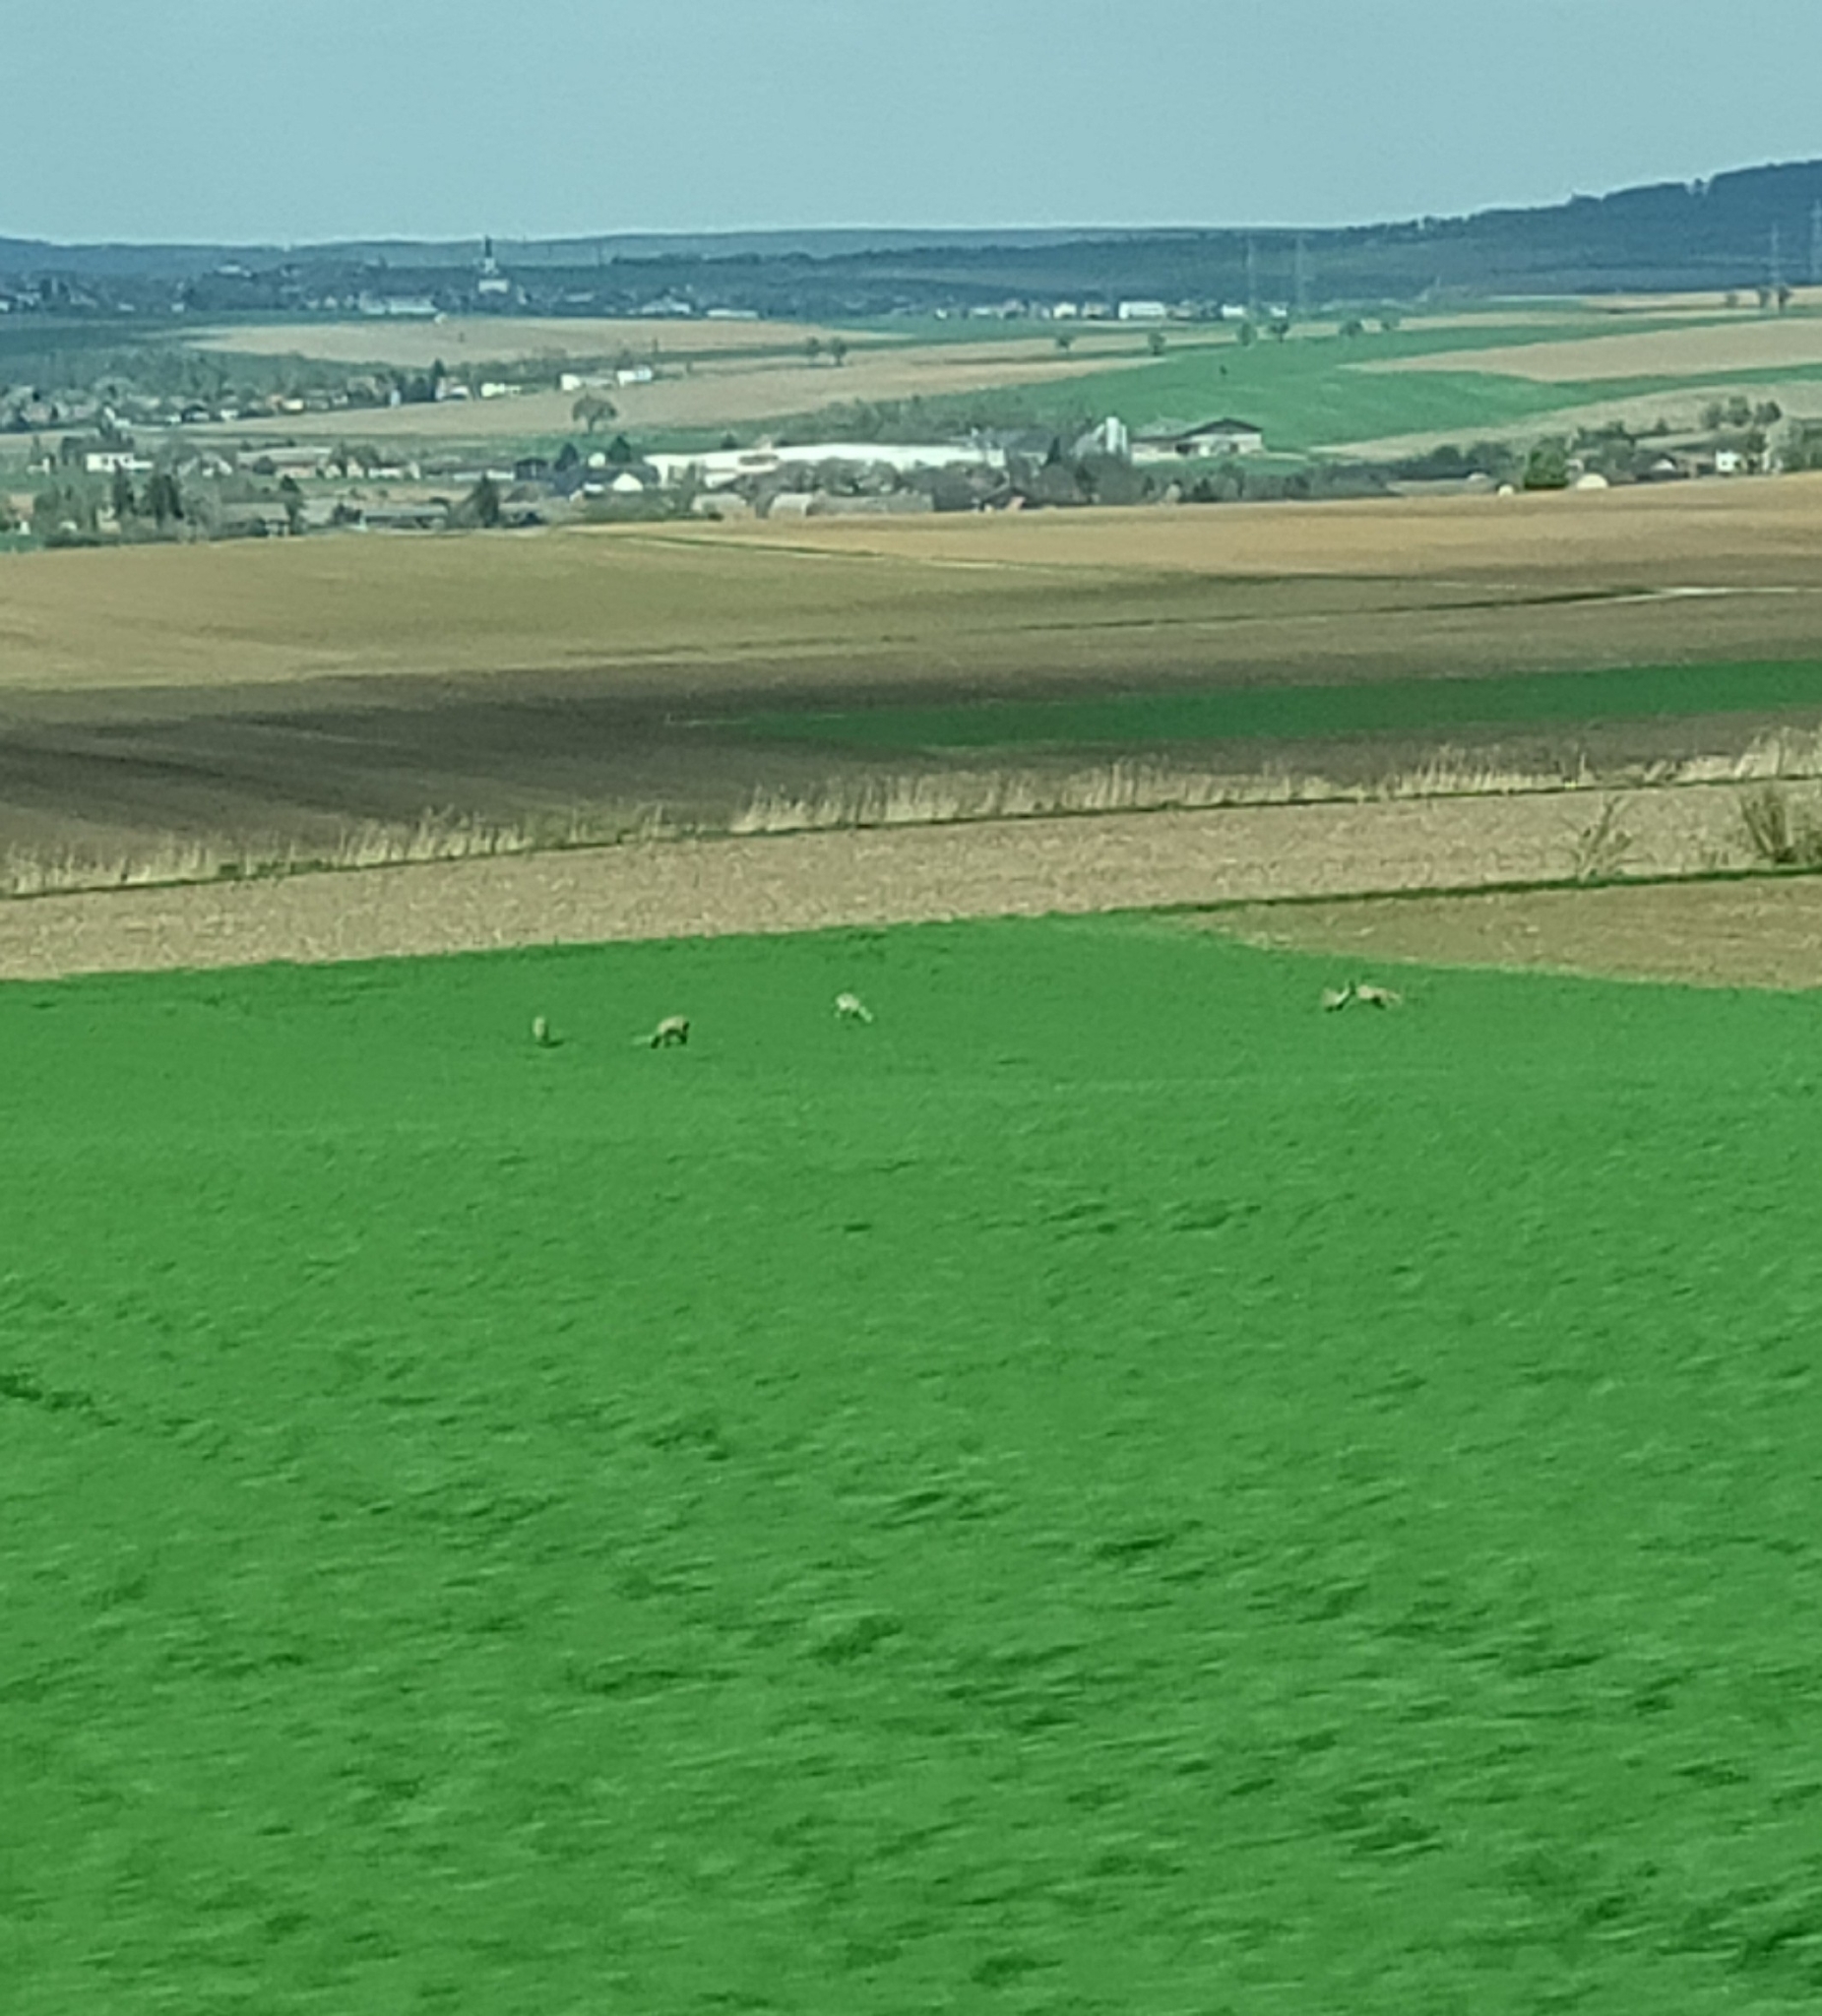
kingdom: Animalia
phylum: Chordata
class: Mammalia
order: Artiodactyla
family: Cervidae
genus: Capreolus
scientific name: Capreolus capreolus
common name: Western roe deer
